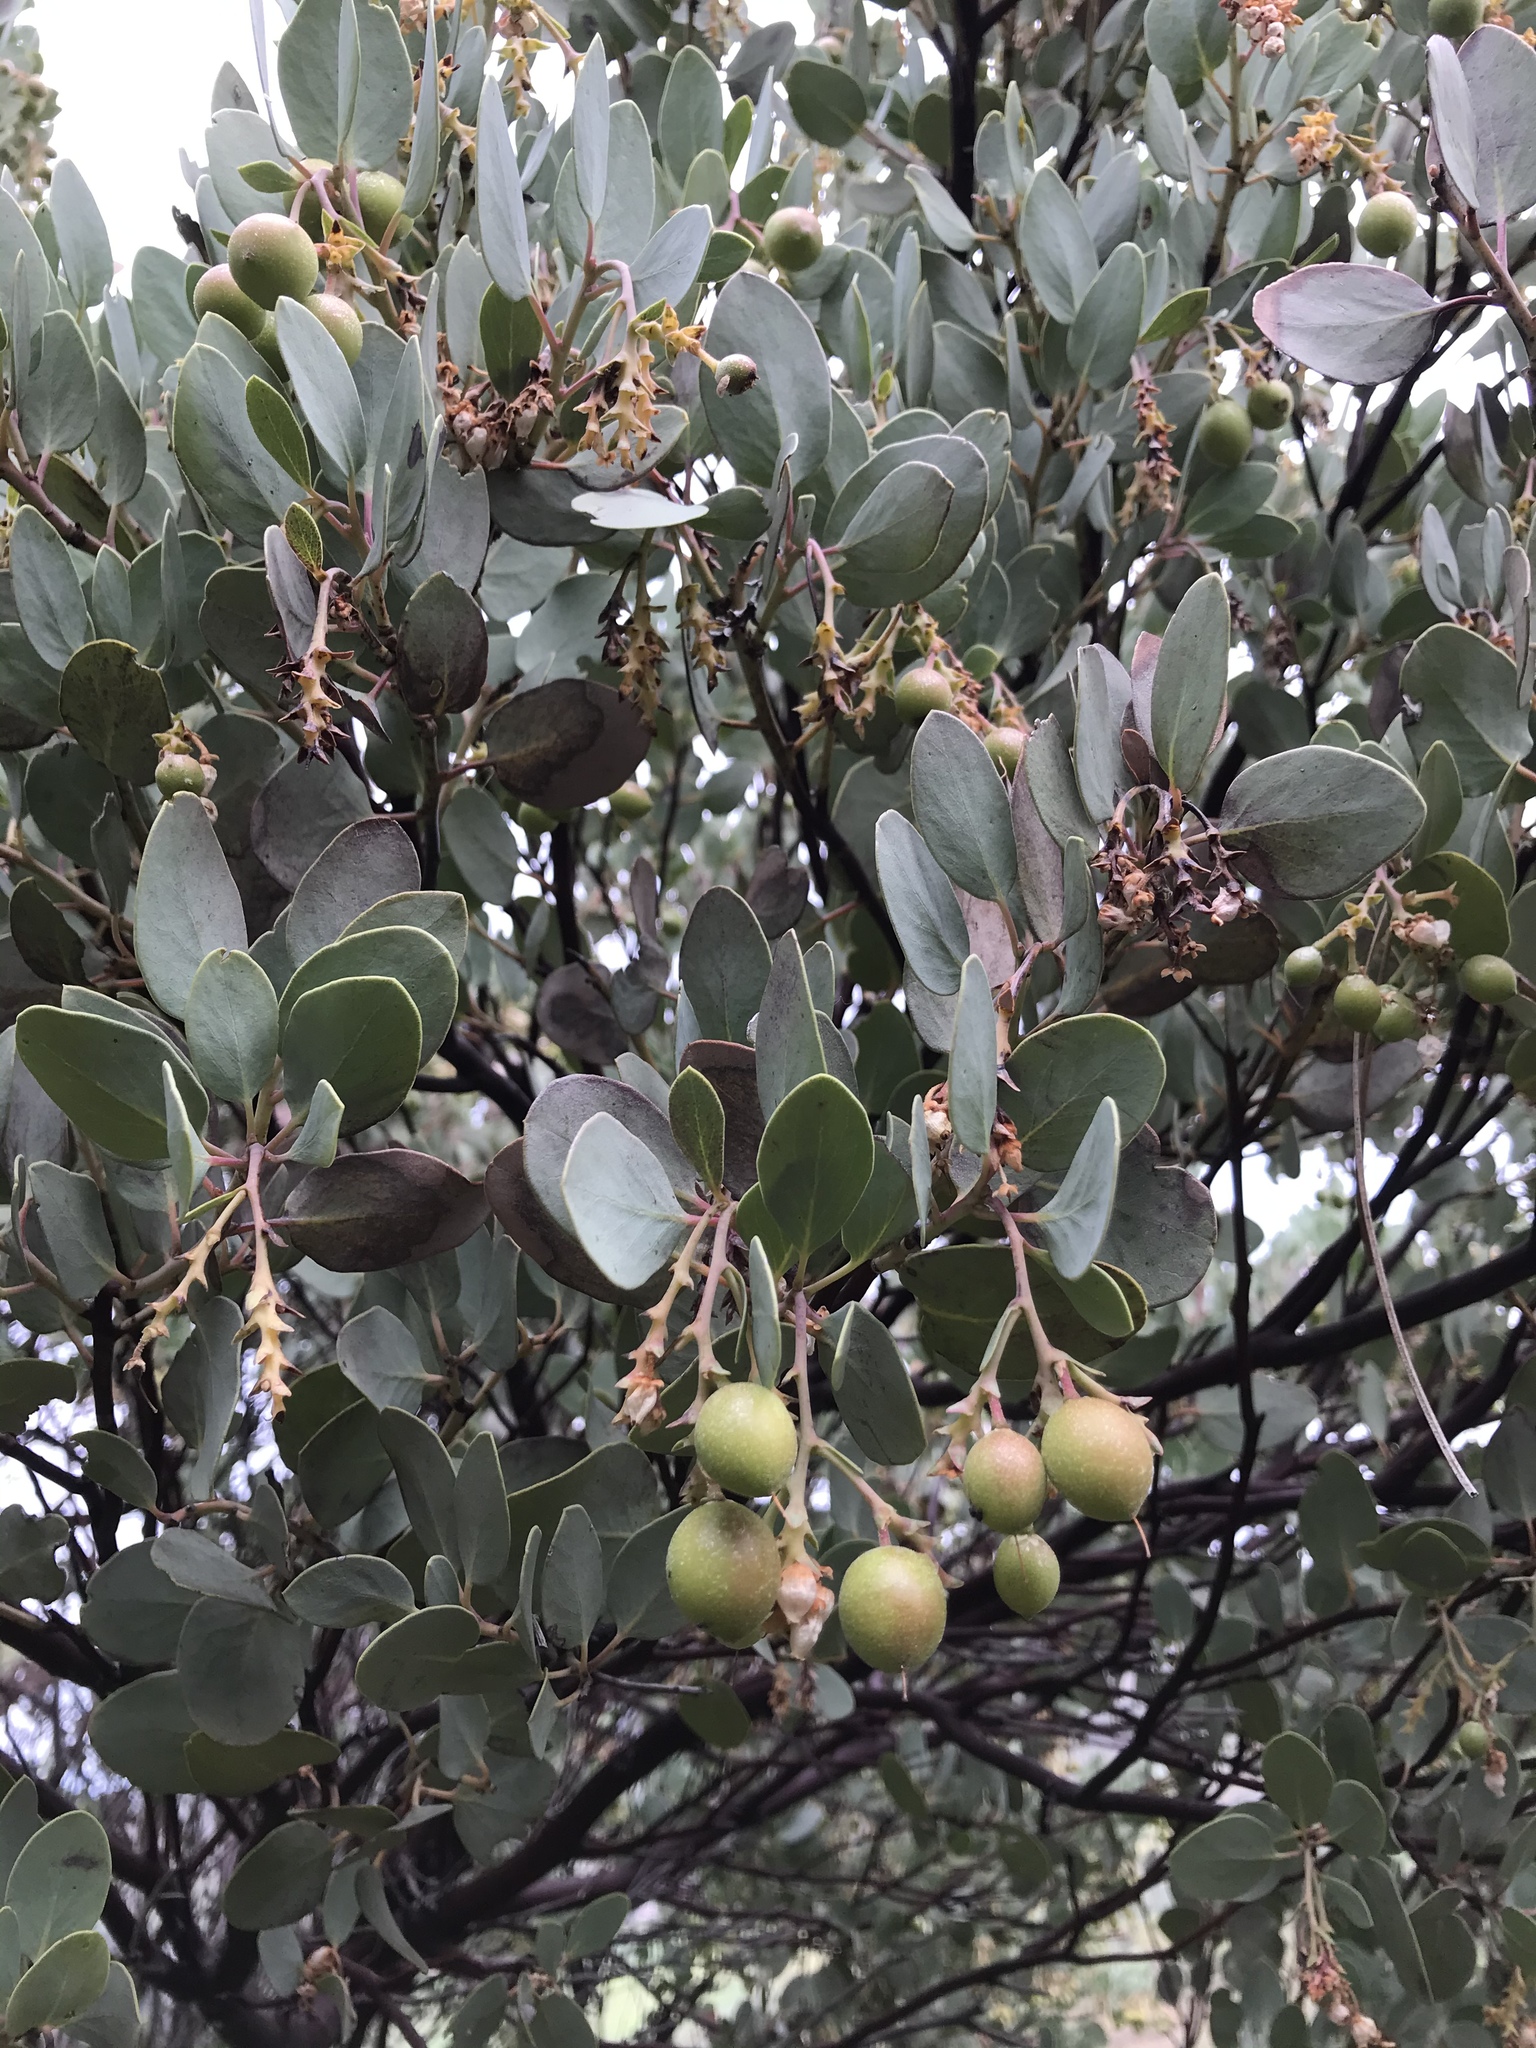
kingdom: Plantae
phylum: Tracheophyta
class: Magnoliopsida
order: Ericales
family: Ericaceae
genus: Arctostaphylos
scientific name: Arctostaphylos glauca
